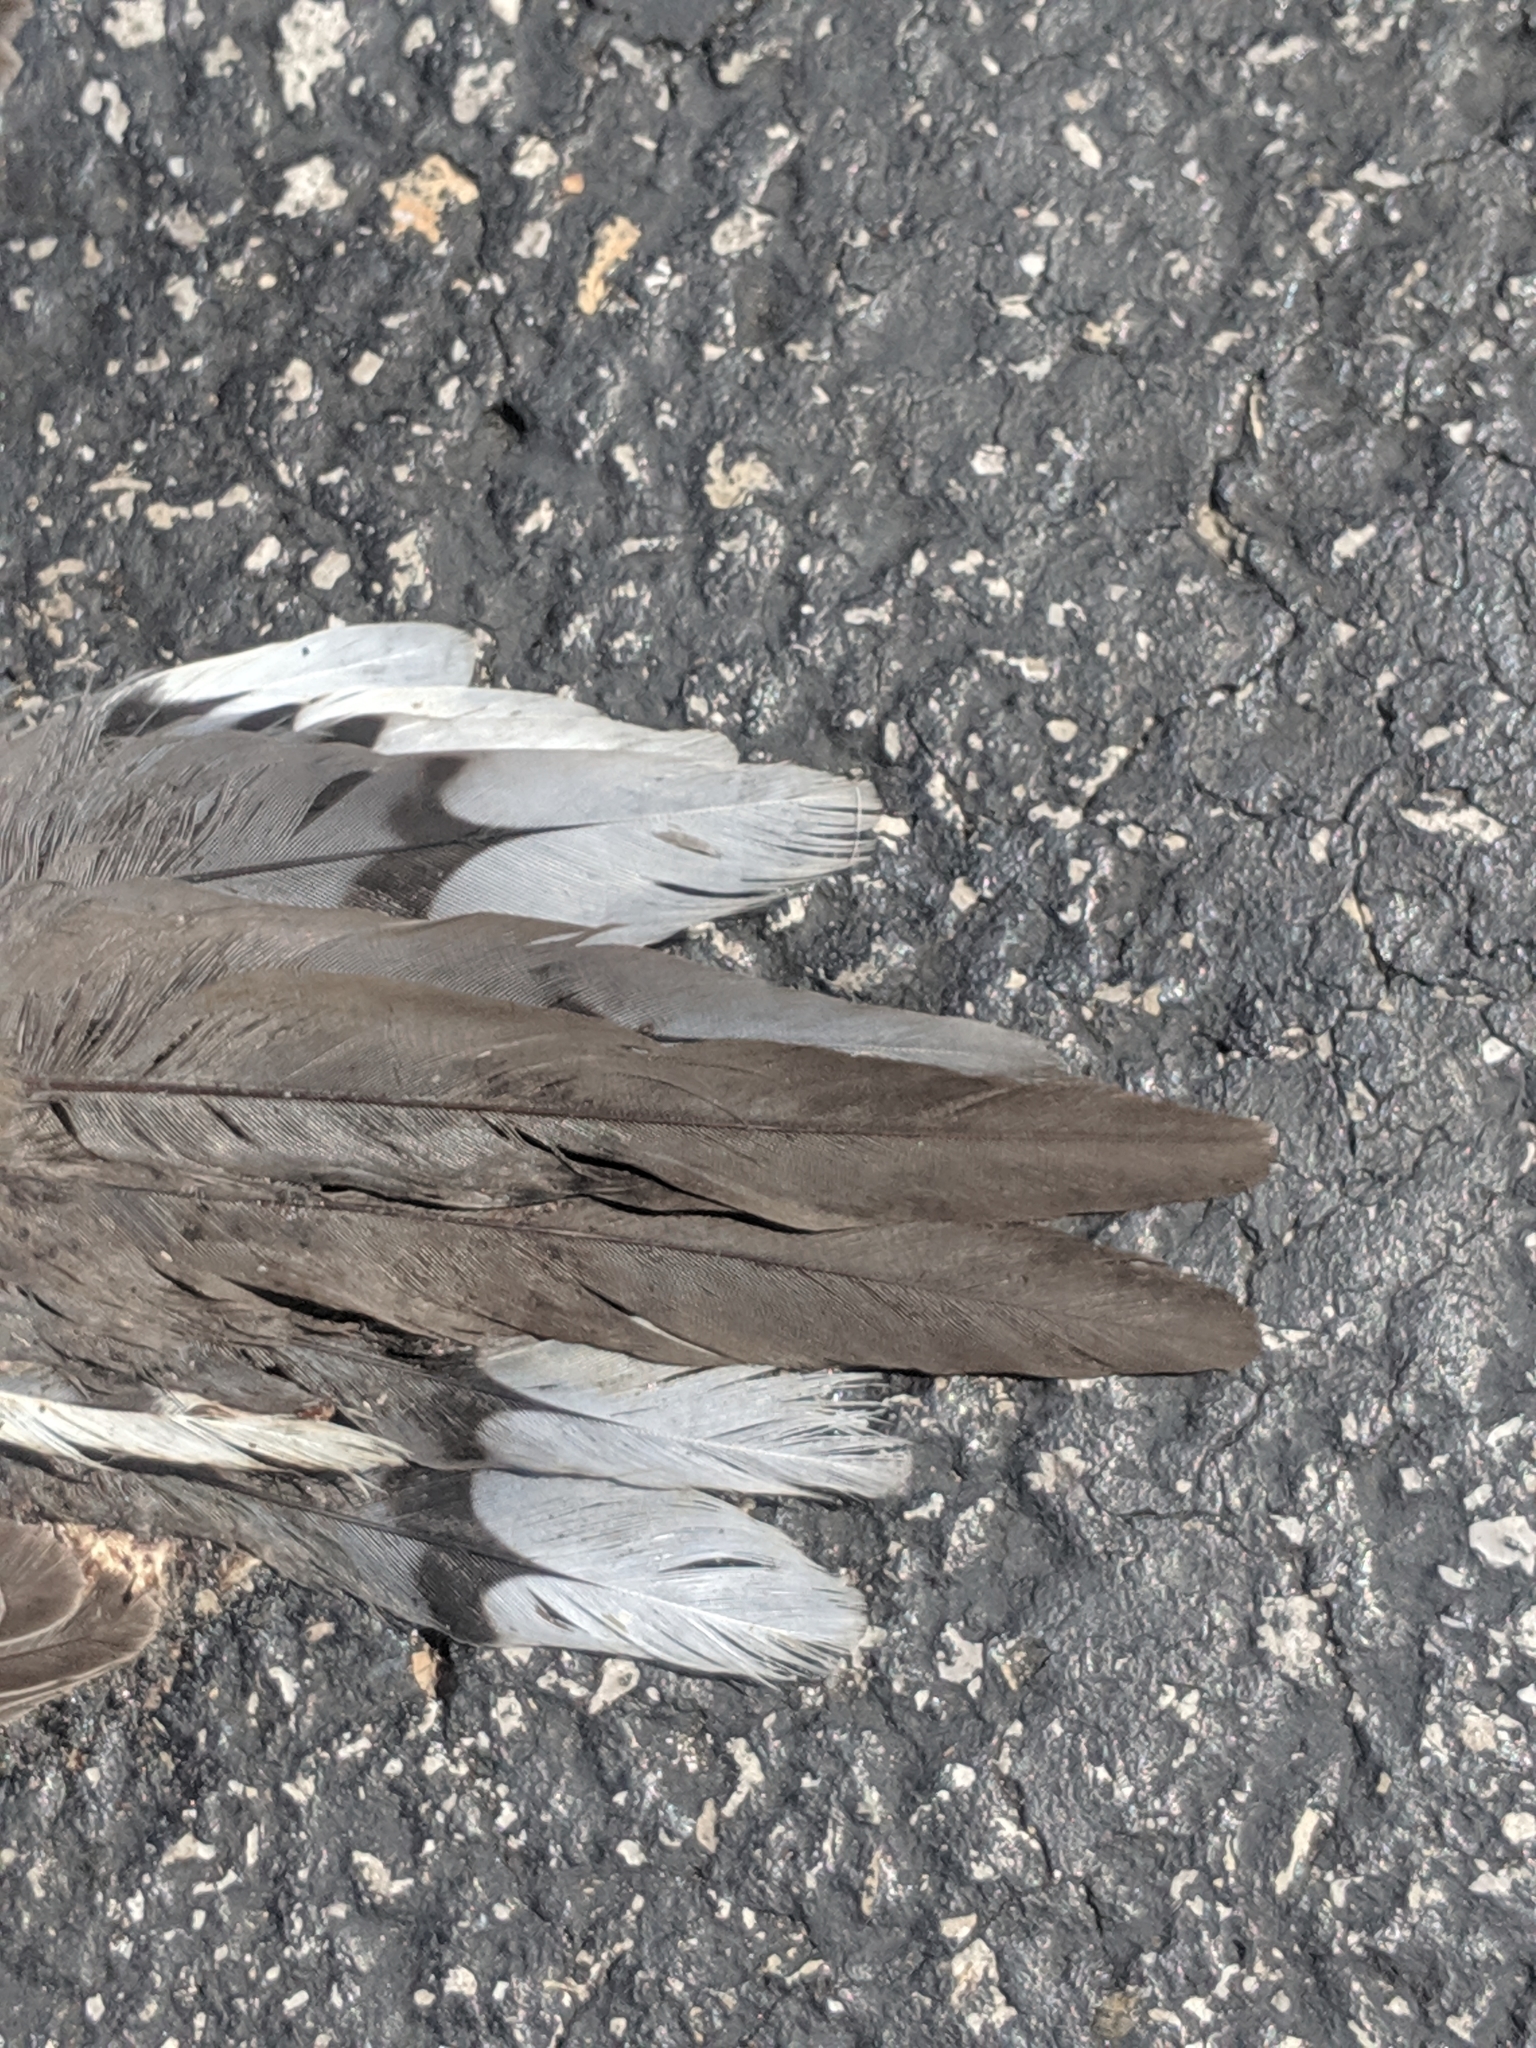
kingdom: Animalia
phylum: Chordata
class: Aves
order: Columbiformes
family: Columbidae
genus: Zenaida
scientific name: Zenaida macroura
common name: Mourning dove
